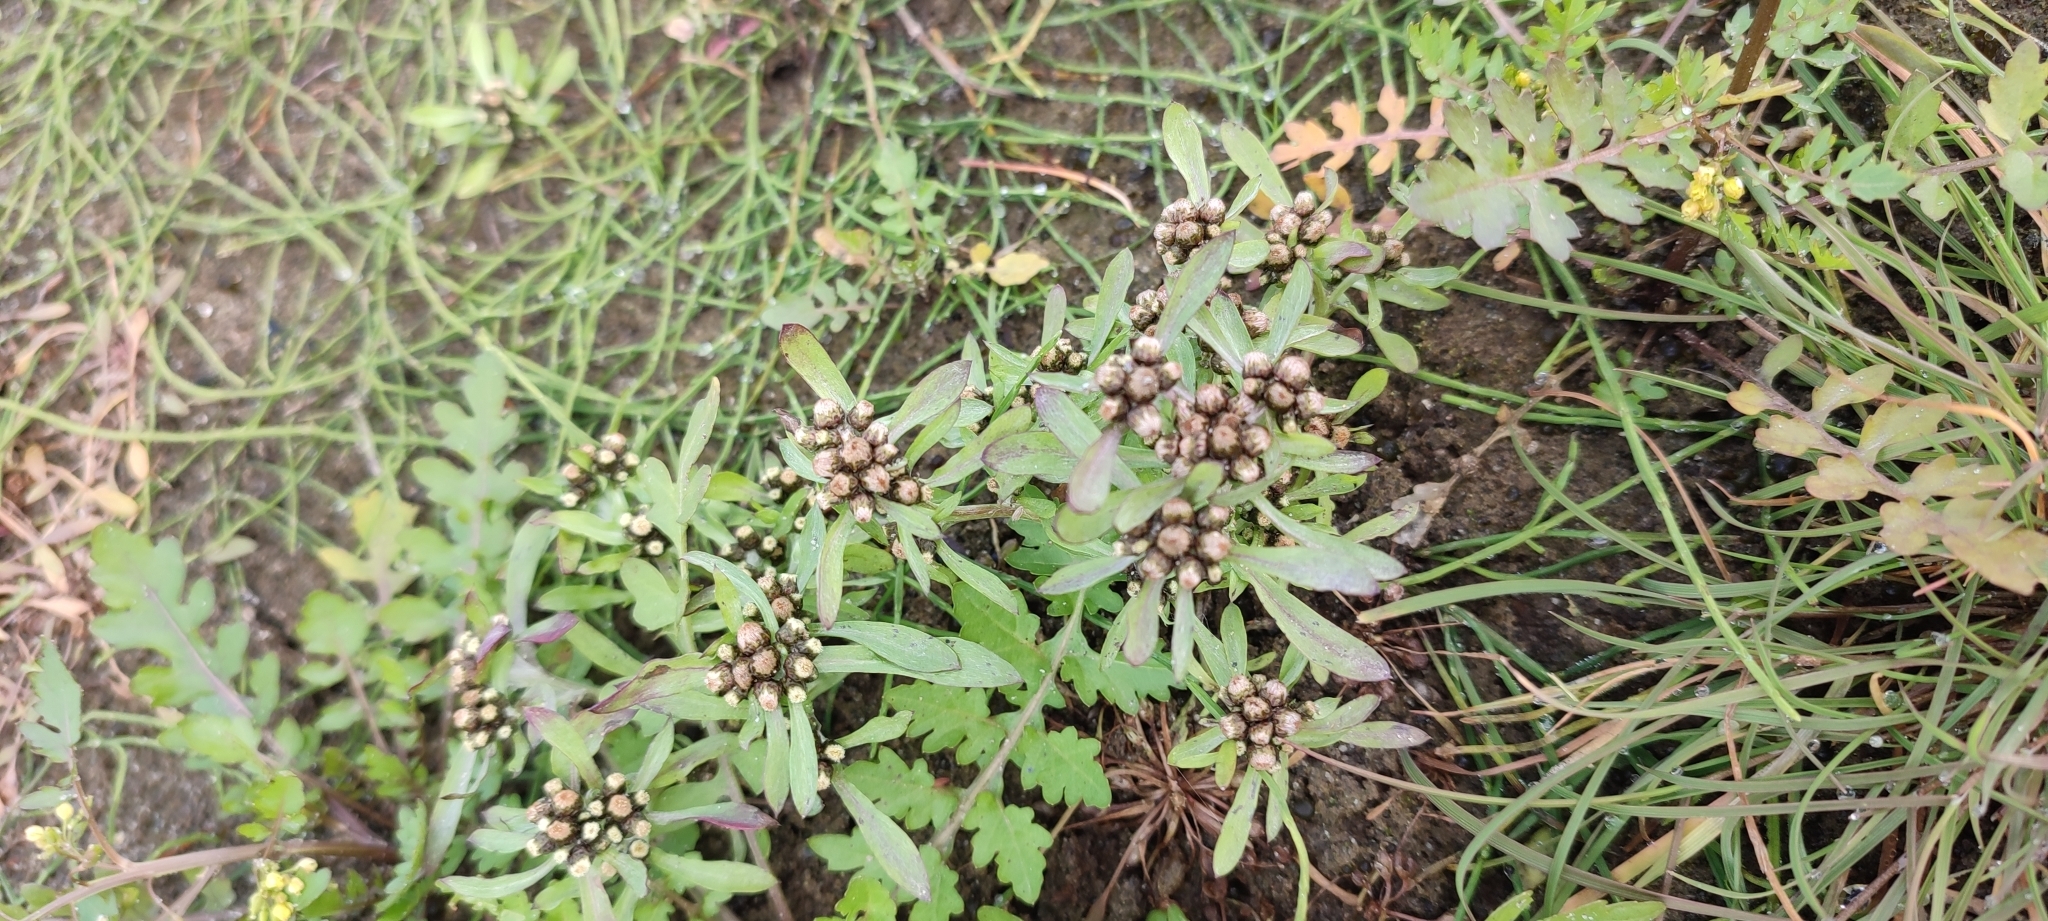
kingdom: Plantae
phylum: Tracheophyta
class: Magnoliopsida
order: Asterales
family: Asteraceae
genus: Gnaphalium
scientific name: Gnaphalium uliginosum
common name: Marsh cudweed
